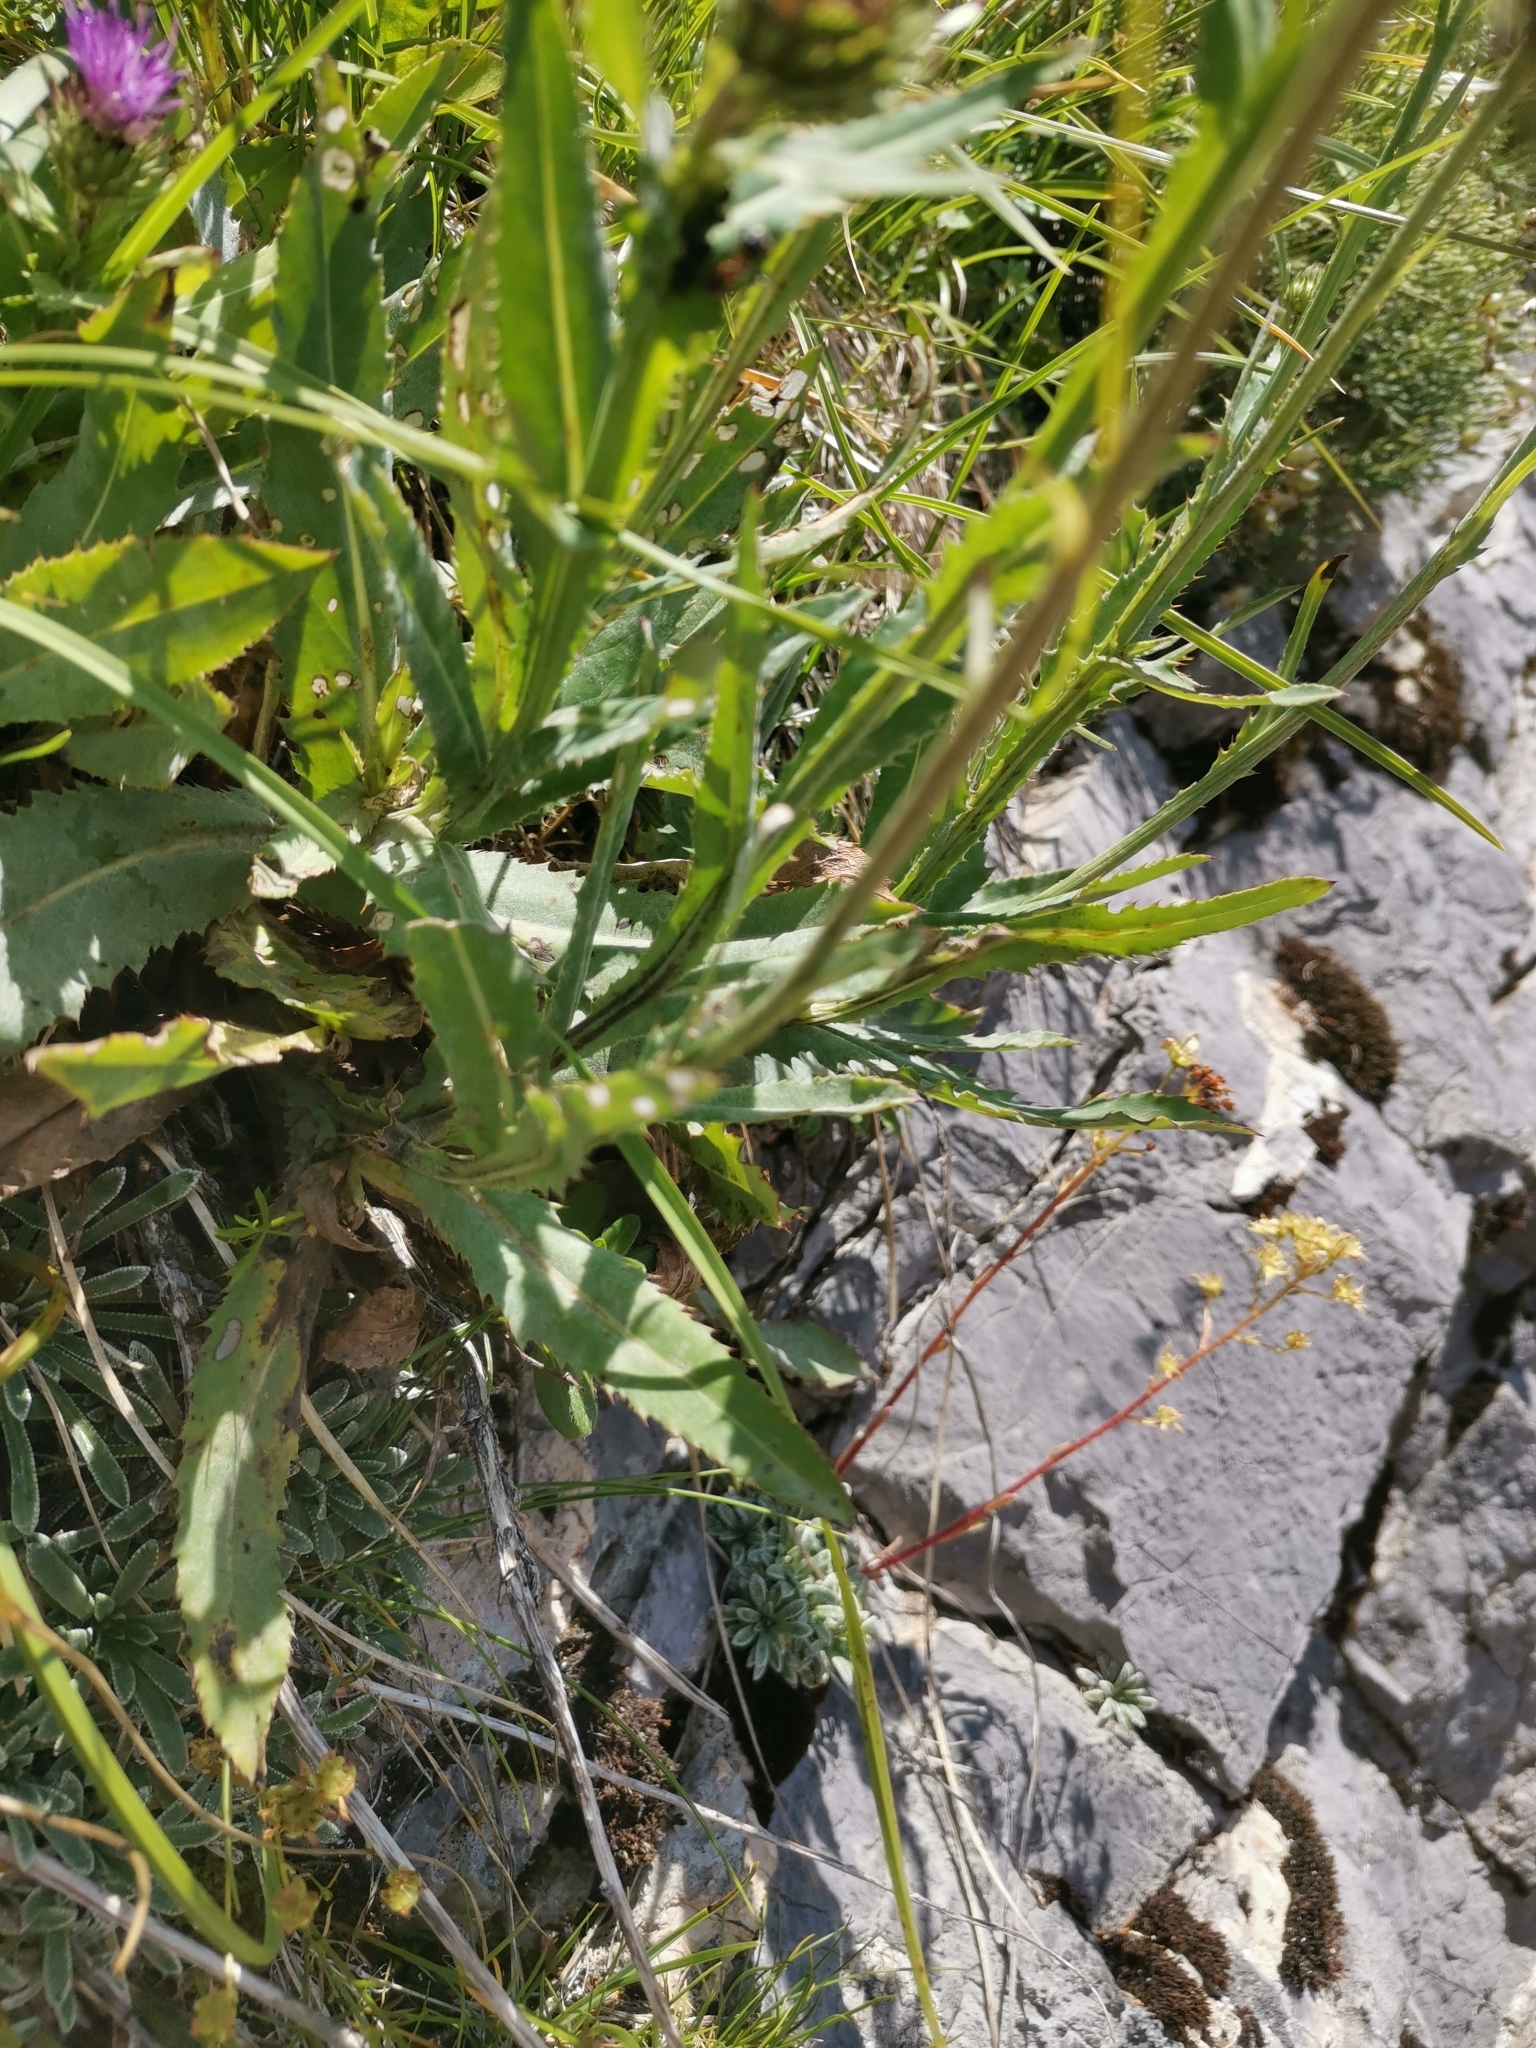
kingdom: Plantae
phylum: Tracheophyta
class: Magnoliopsida
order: Asterales
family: Asteraceae
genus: Carduus
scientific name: Carduus defloratus
